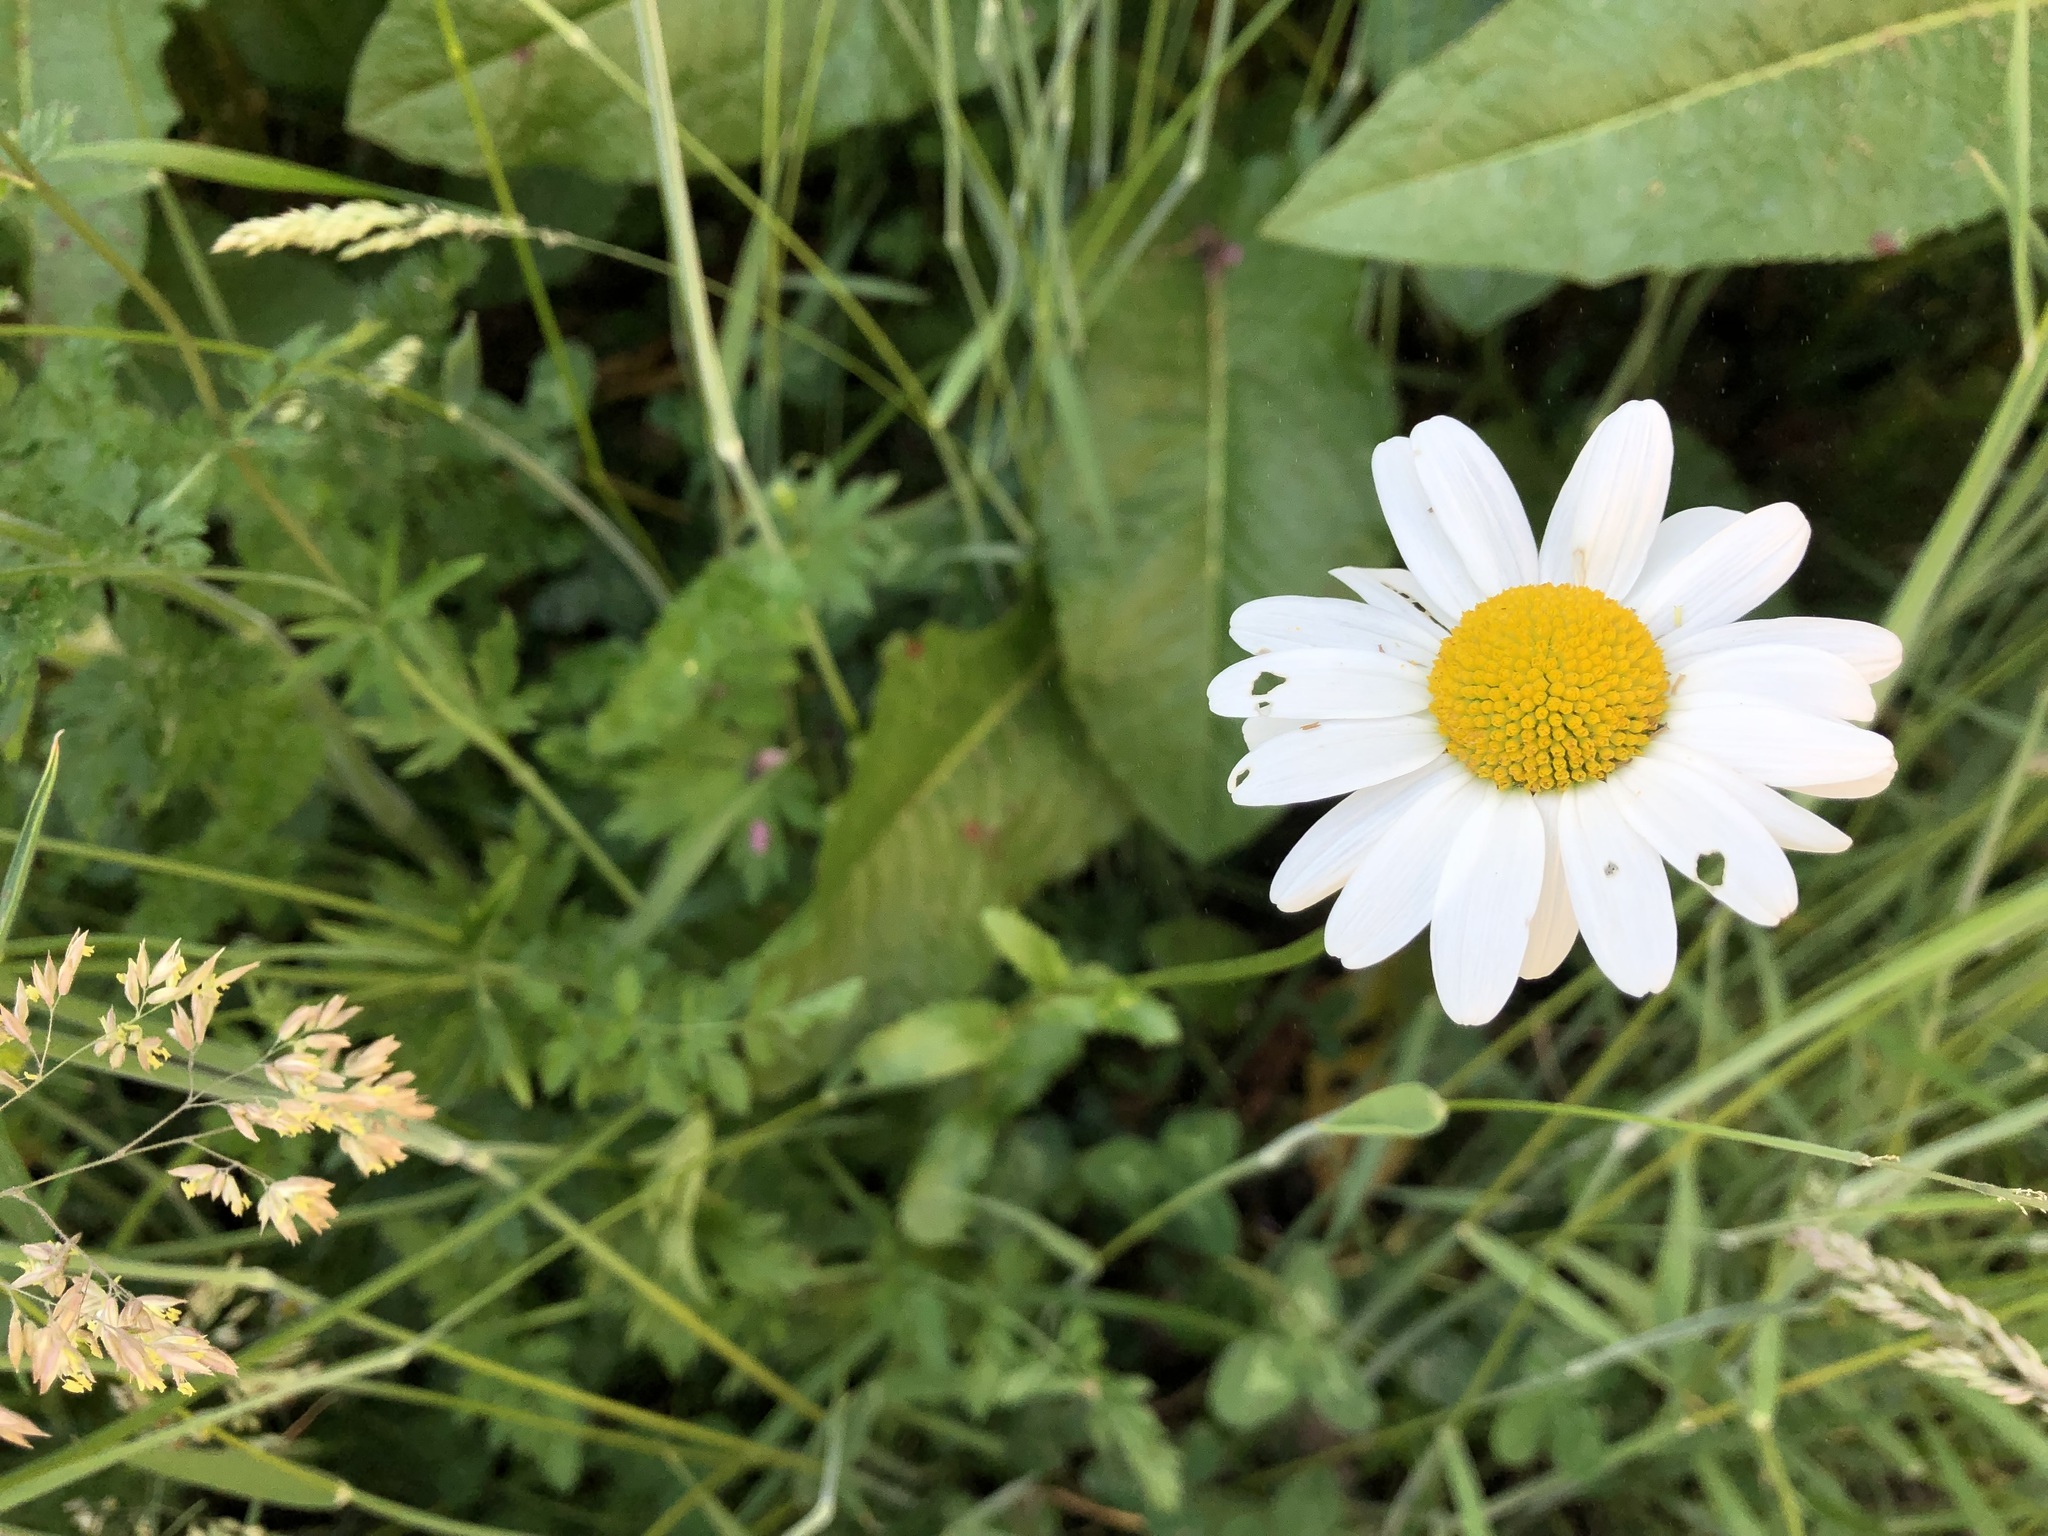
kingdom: Plantae
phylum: Tracheophyta
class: Magnoliopsida
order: Asterales
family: Asteraceae
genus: Leucanthemum
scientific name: Leucanthemum vulgare
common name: Oxeye daisy
